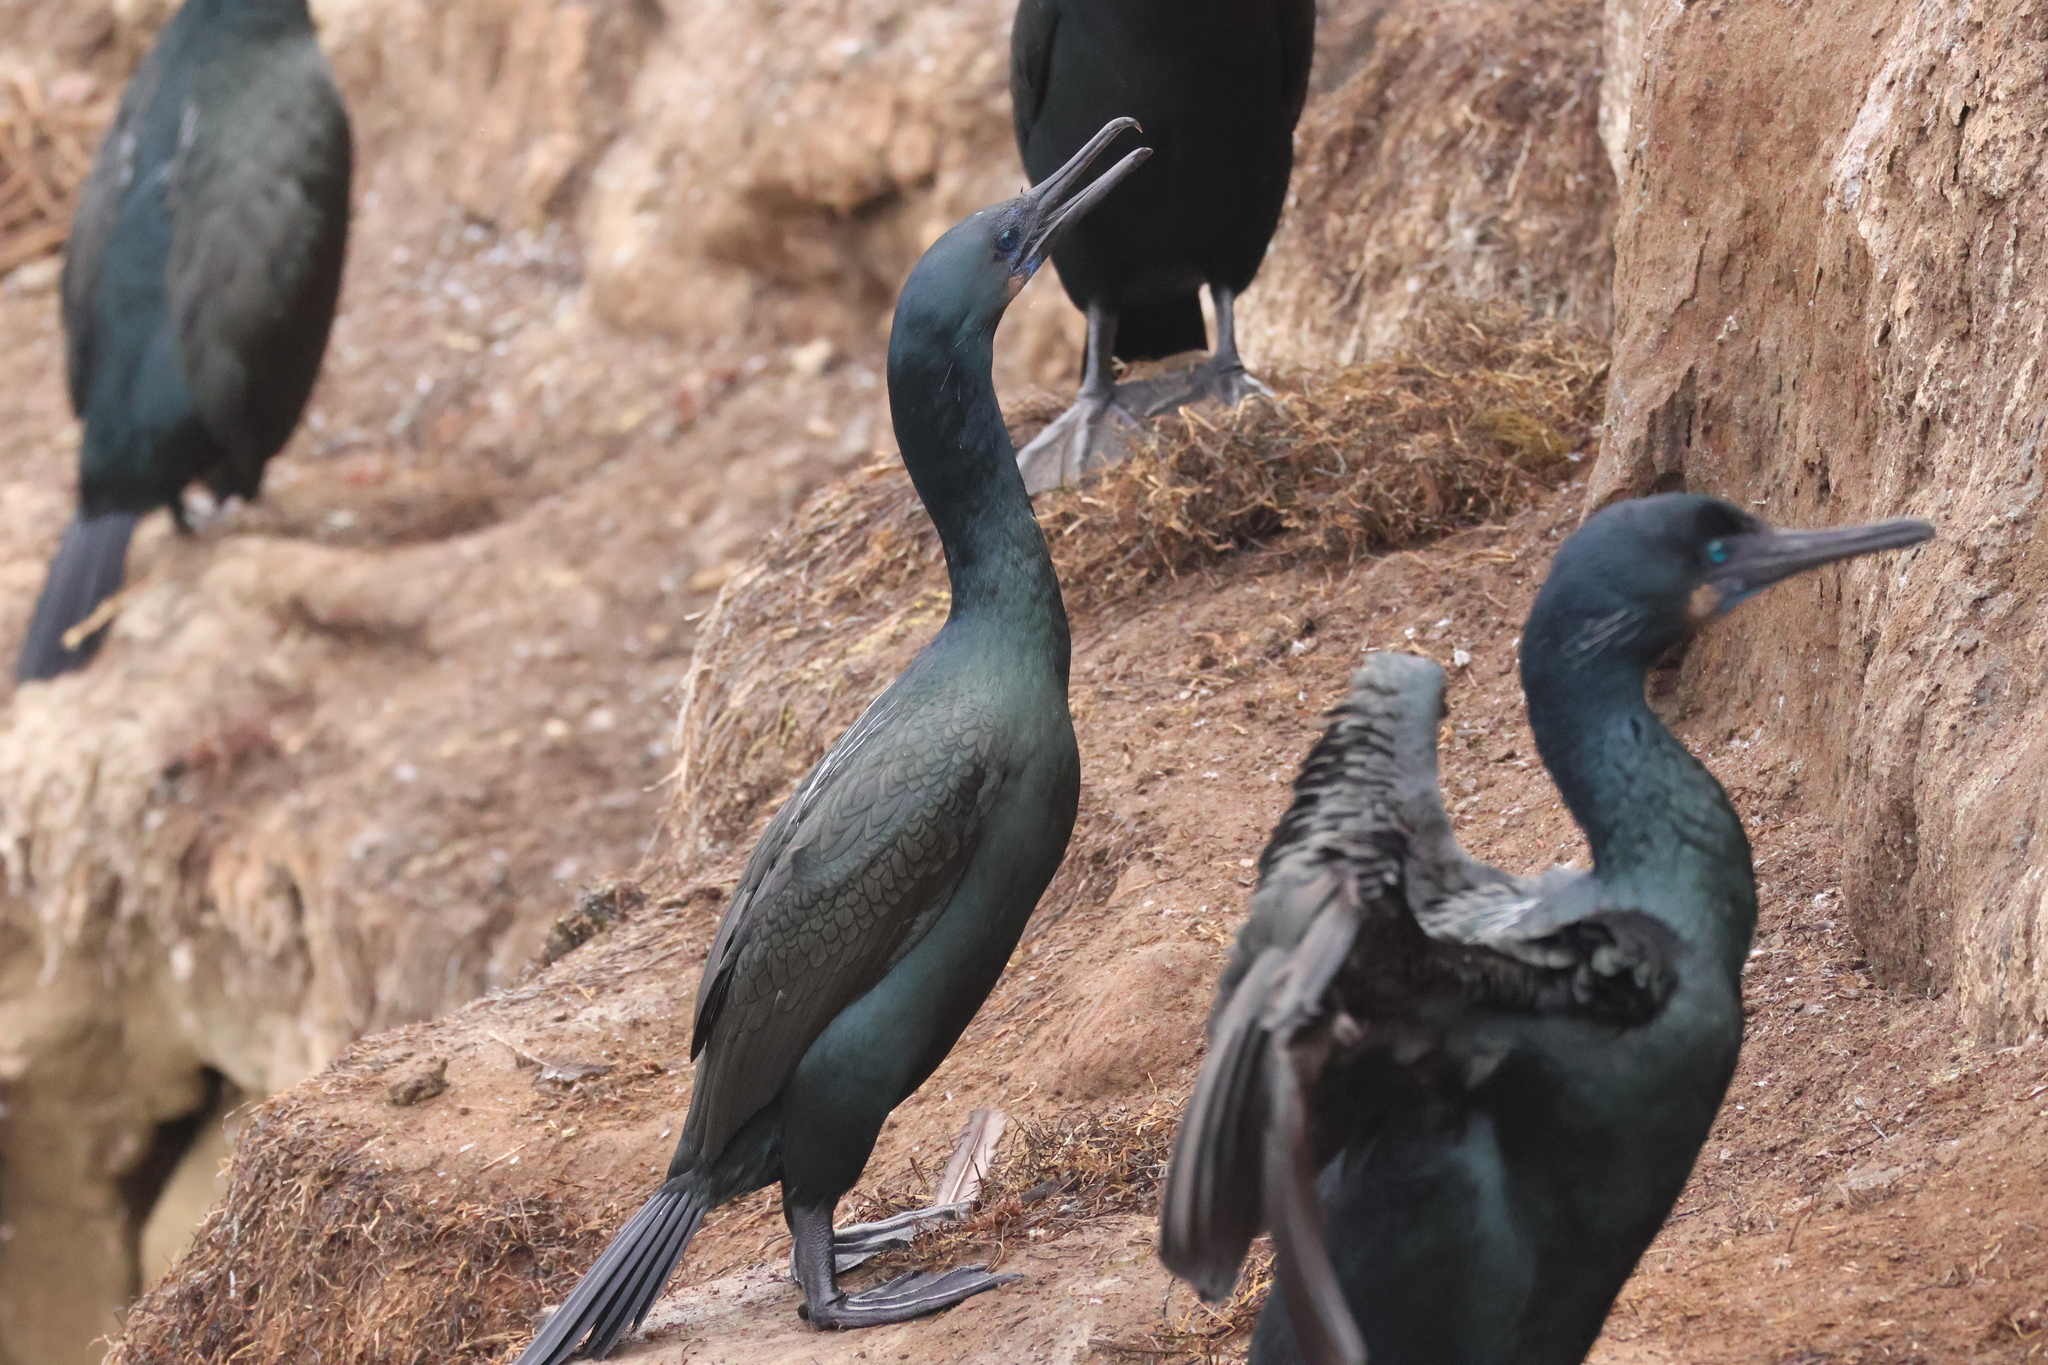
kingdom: Animalia
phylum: Chordata
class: Aves
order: Suliformes
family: Phalacrocoracidae
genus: Urile
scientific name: Urile penicillatus
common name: Brandt's cormorant
